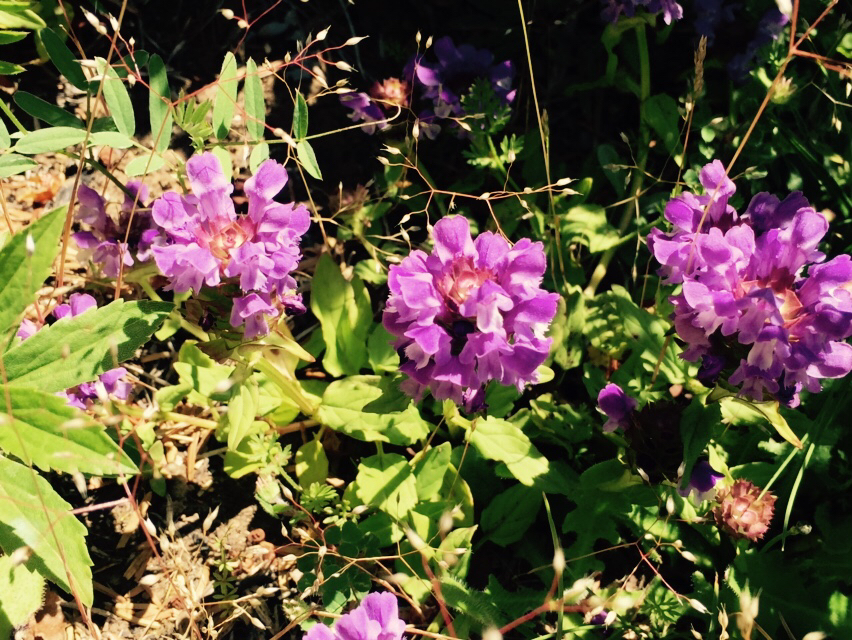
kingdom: Plantae
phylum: Tracheophyta
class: Magnoliopsida
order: Lamiales
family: Lamiaceae
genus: Prunella
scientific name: Prunella vulgaris
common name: Heal-all
